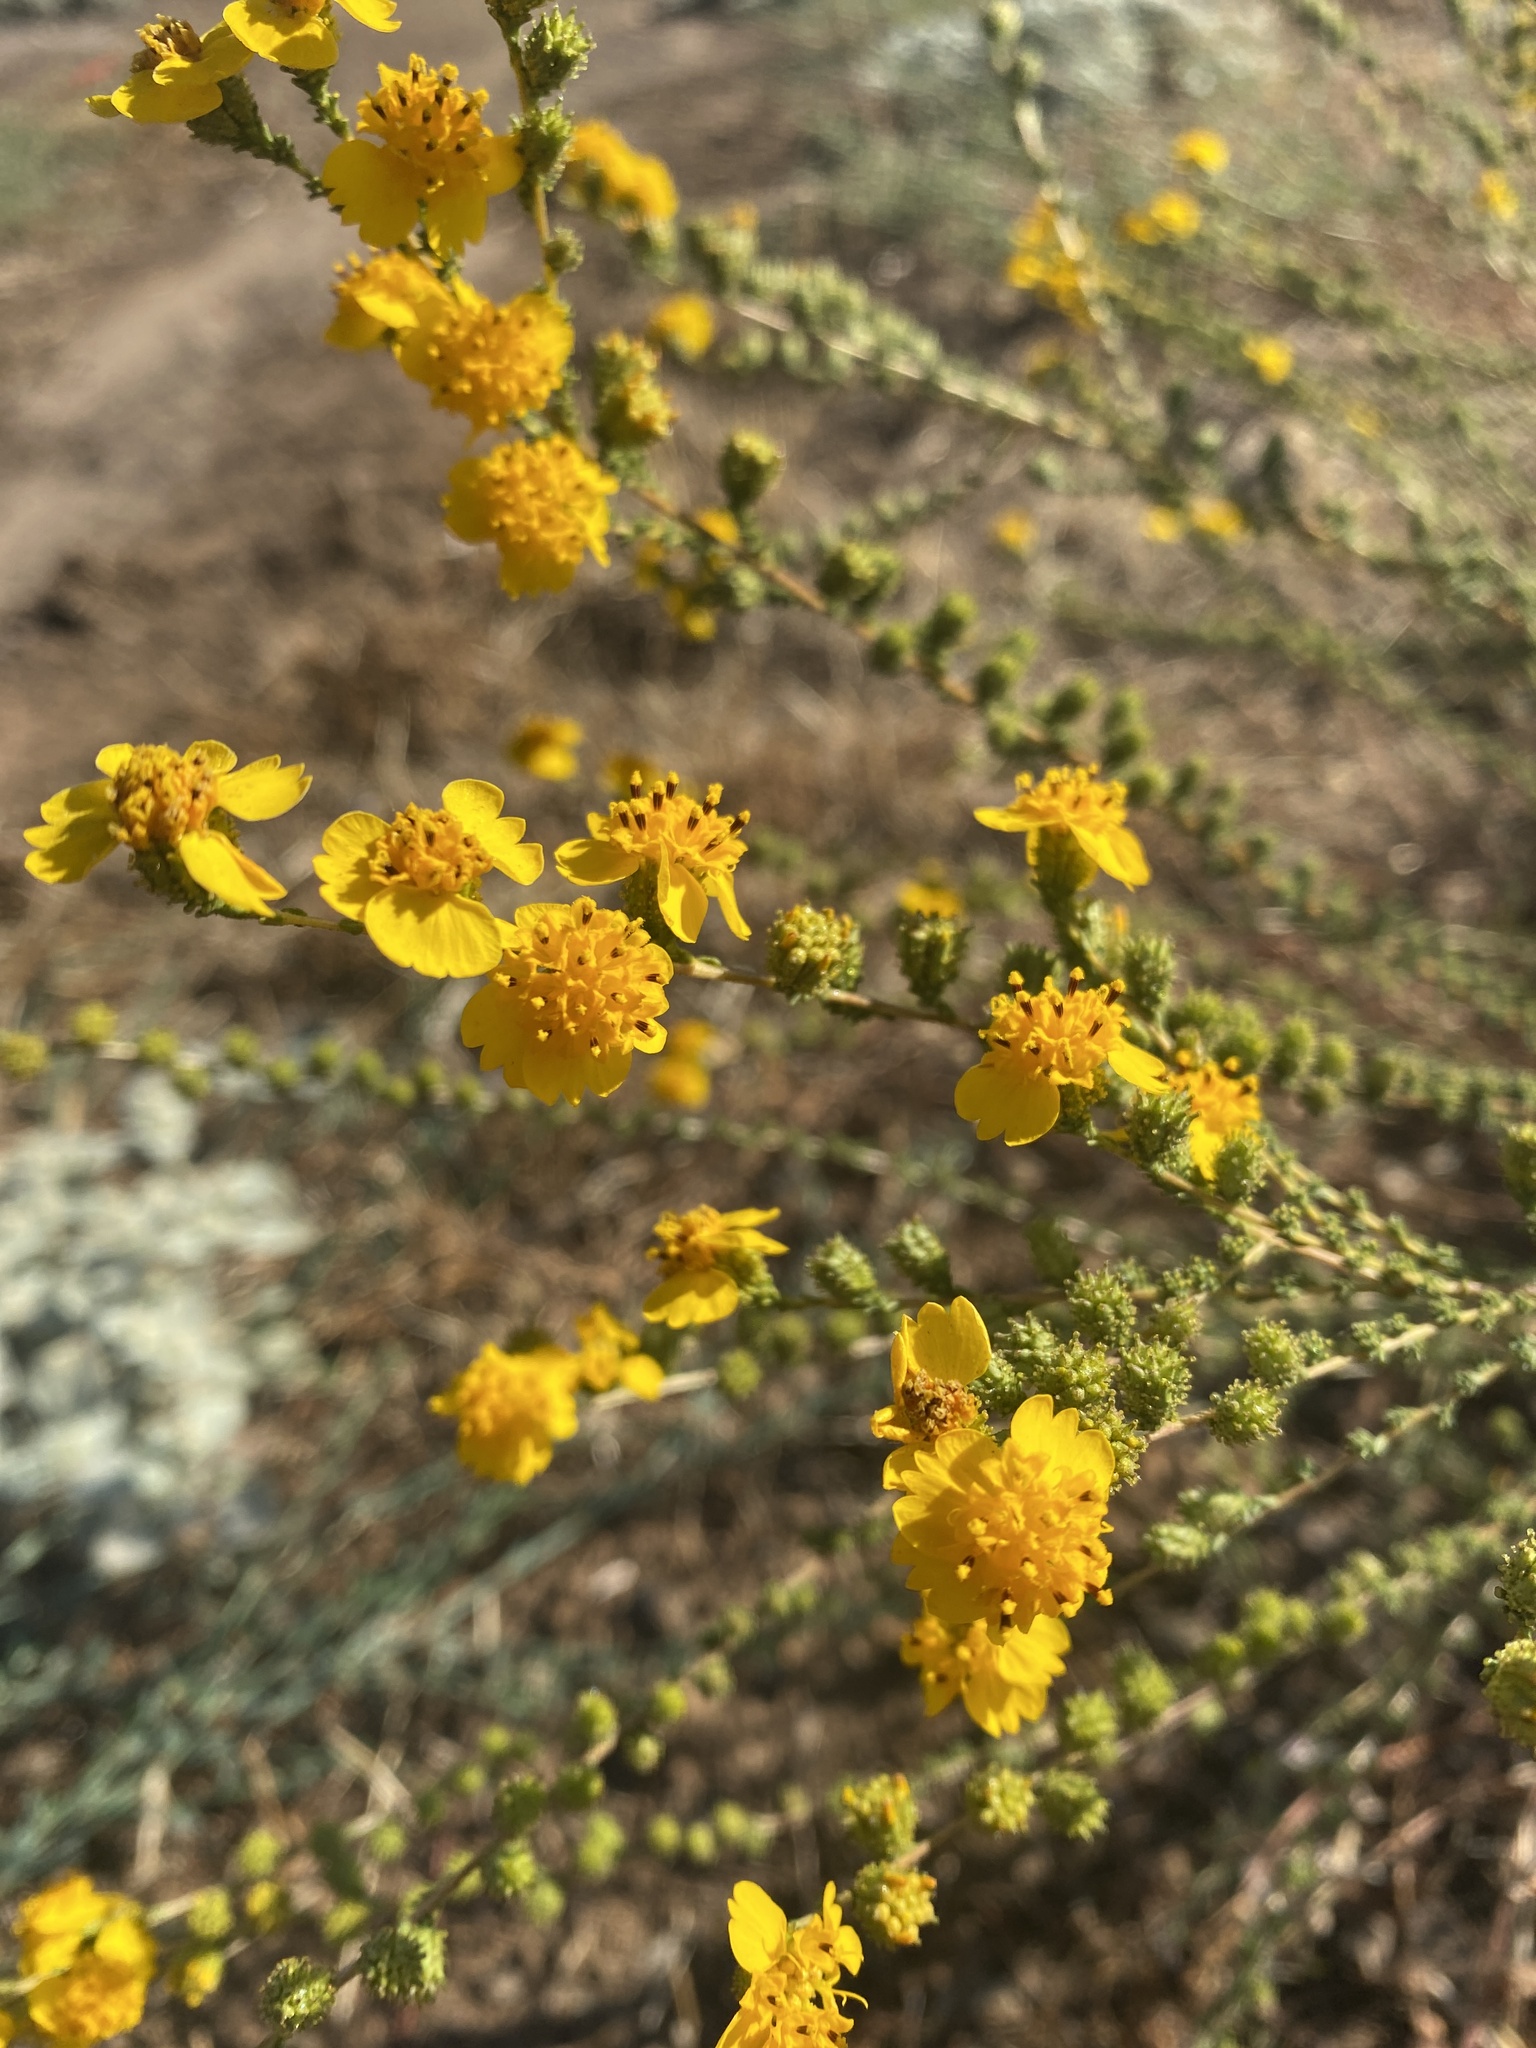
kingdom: Plantae
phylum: Tracheophyta
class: Magnoliopsida
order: Asterales
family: Asteraceae
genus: Holocarpha
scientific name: Holocarpha virgata
